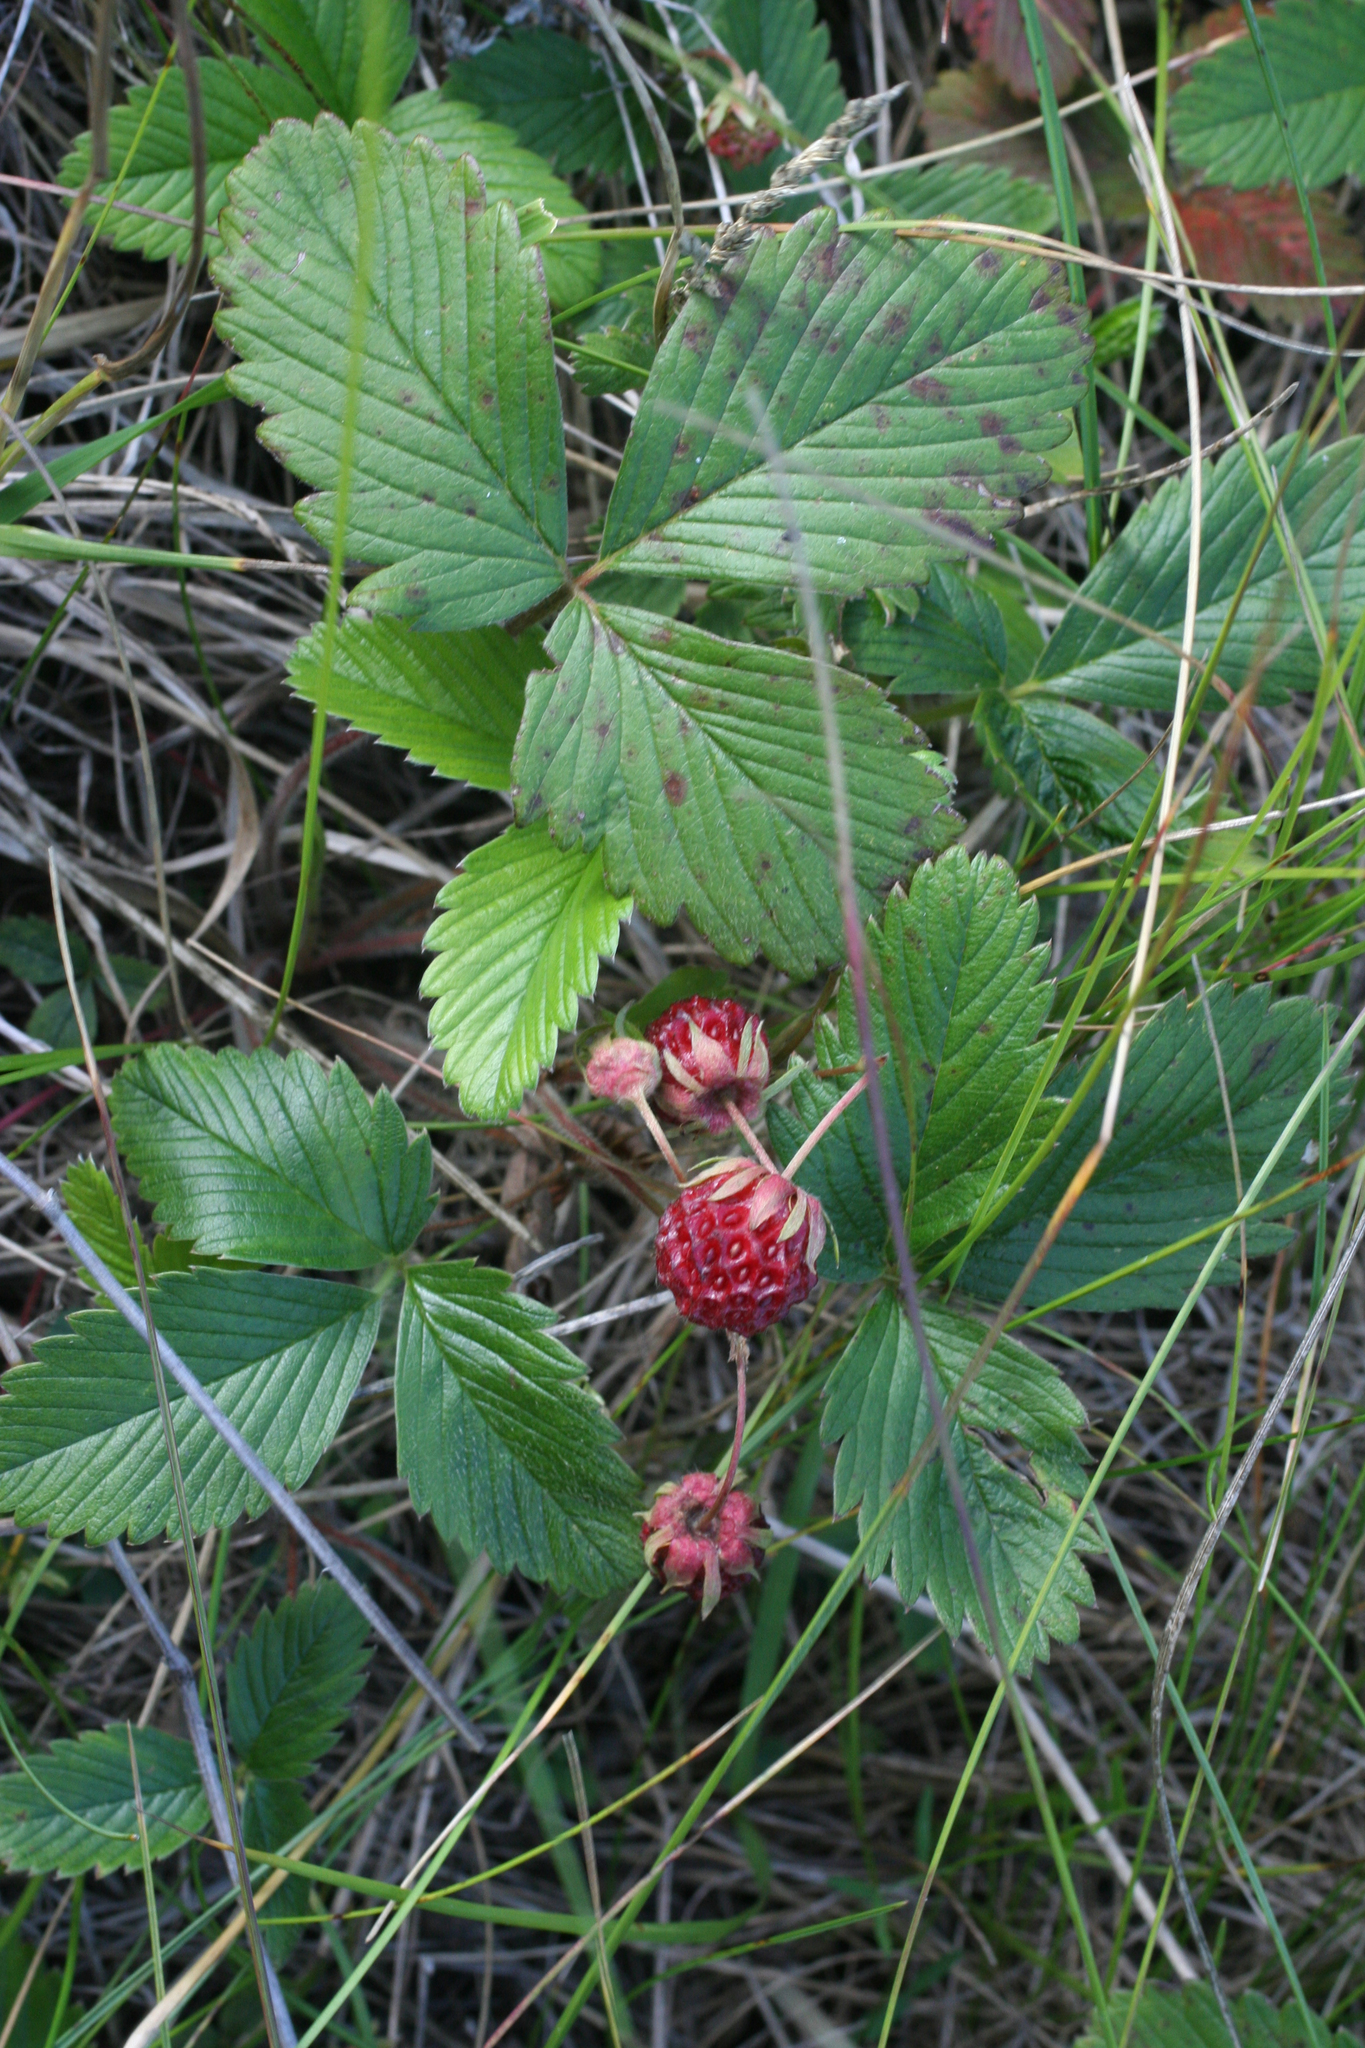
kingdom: Plantae
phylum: Tracheophyta
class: Magnoliopsida
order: Rosales
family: Rosaceae
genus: Fragaria
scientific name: Fragaria viridis
